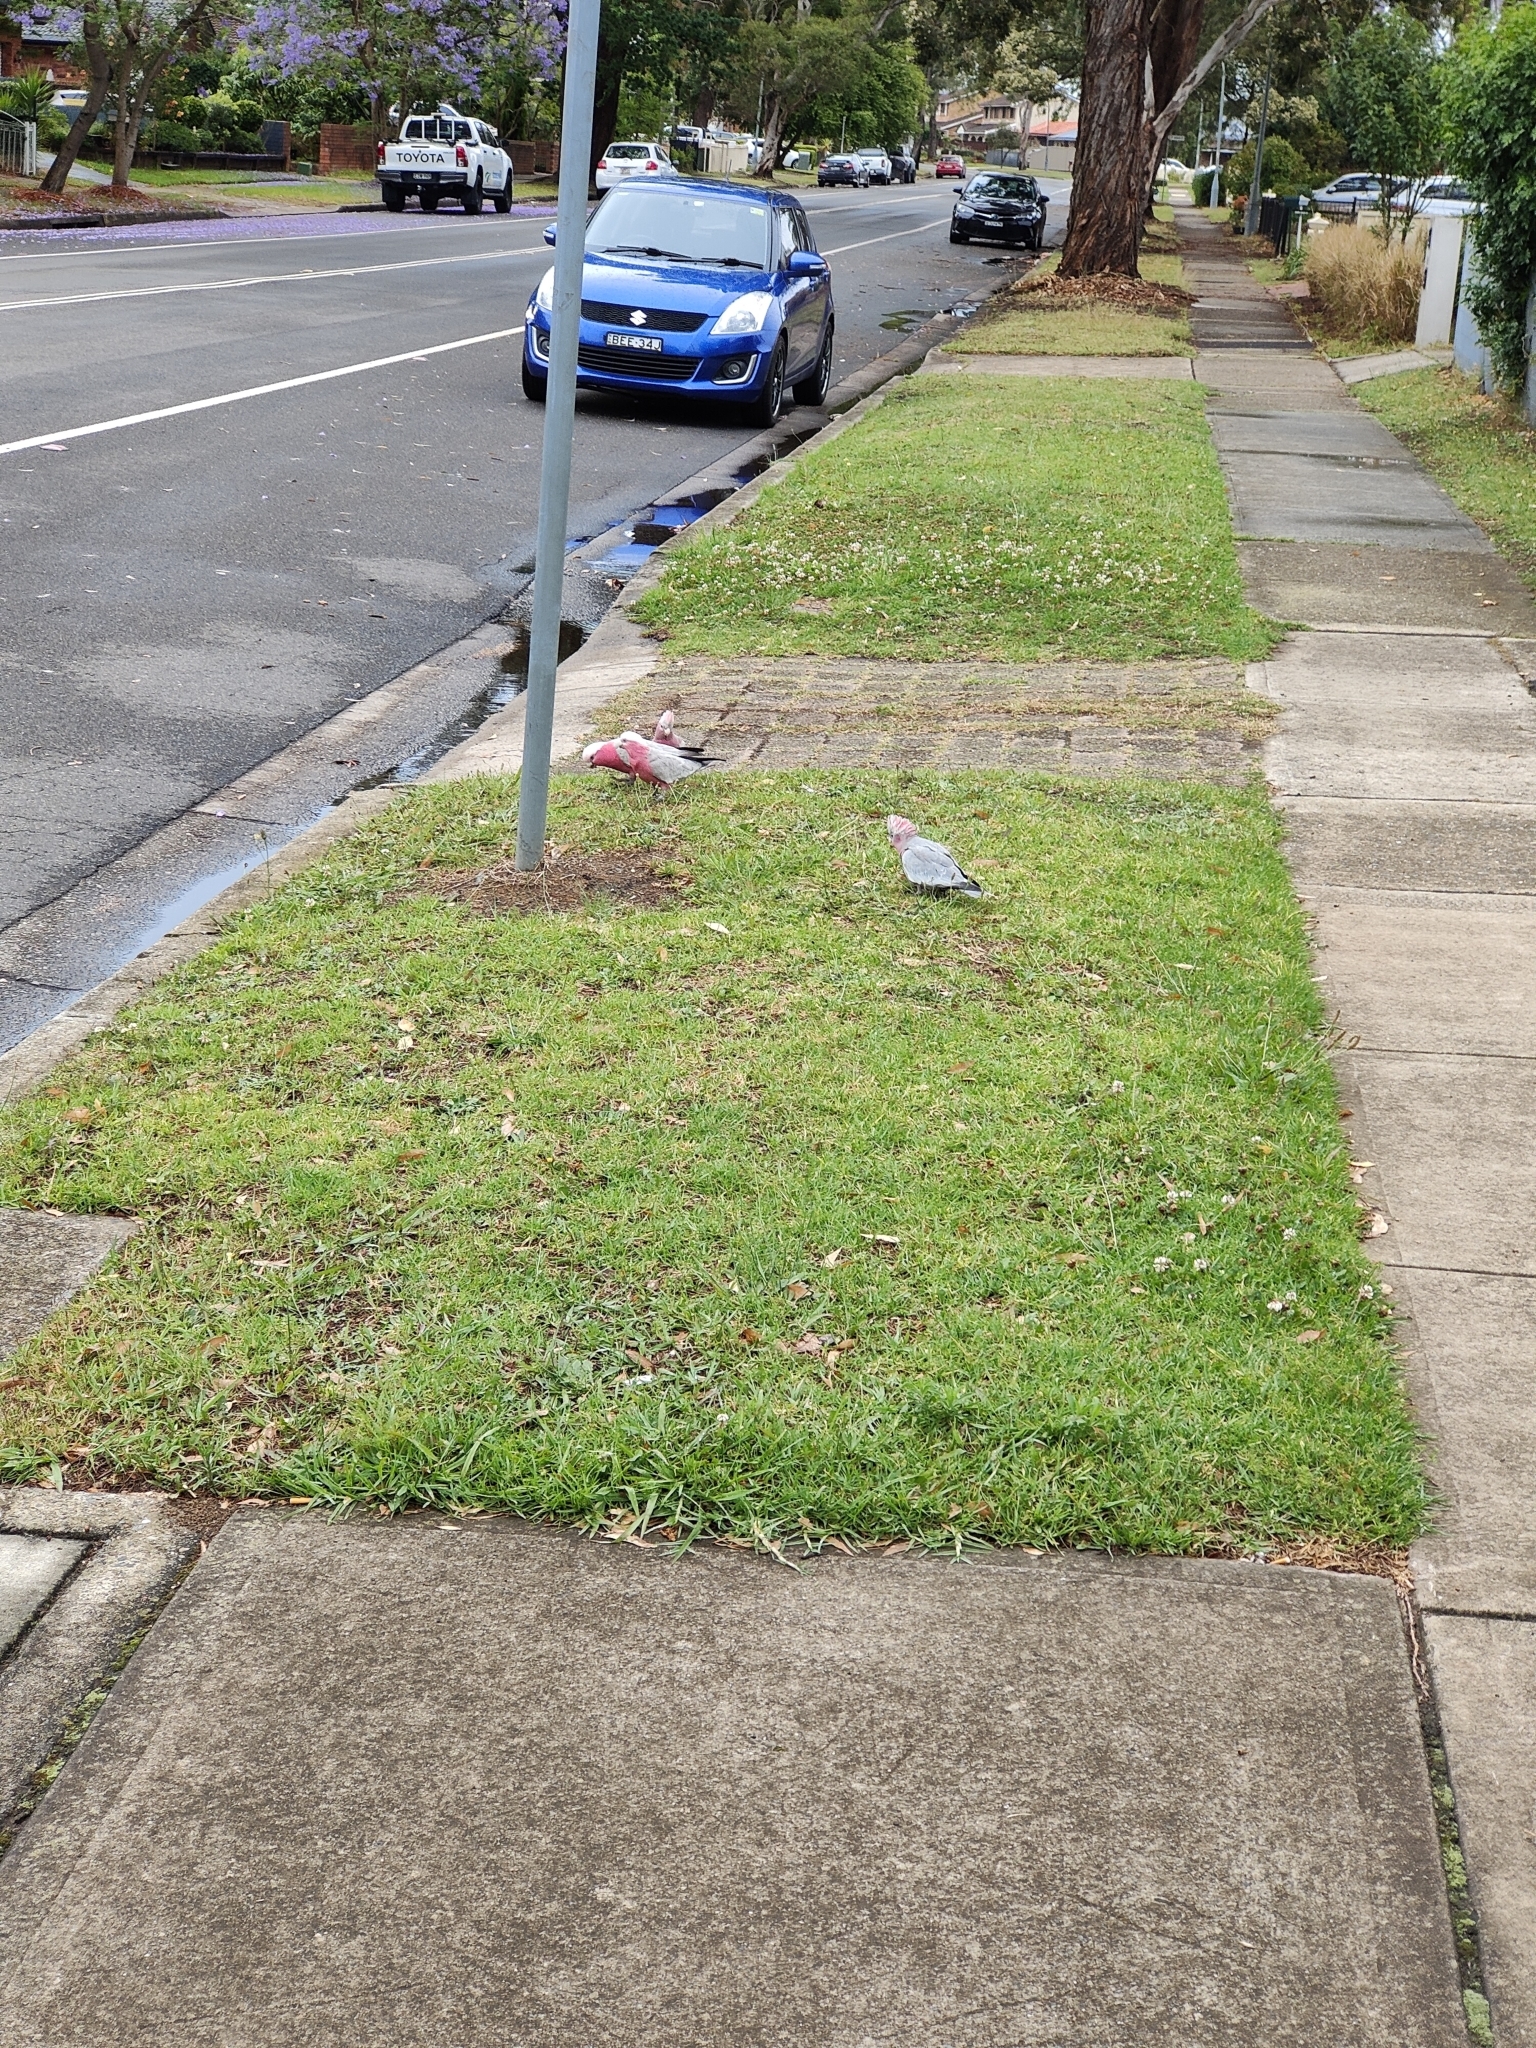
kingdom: Animalia
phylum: Chordata
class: Aves
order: Psittaciformes
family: Psittacidae
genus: Eolophus
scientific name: Eolophus roseicapilla
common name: Galah
